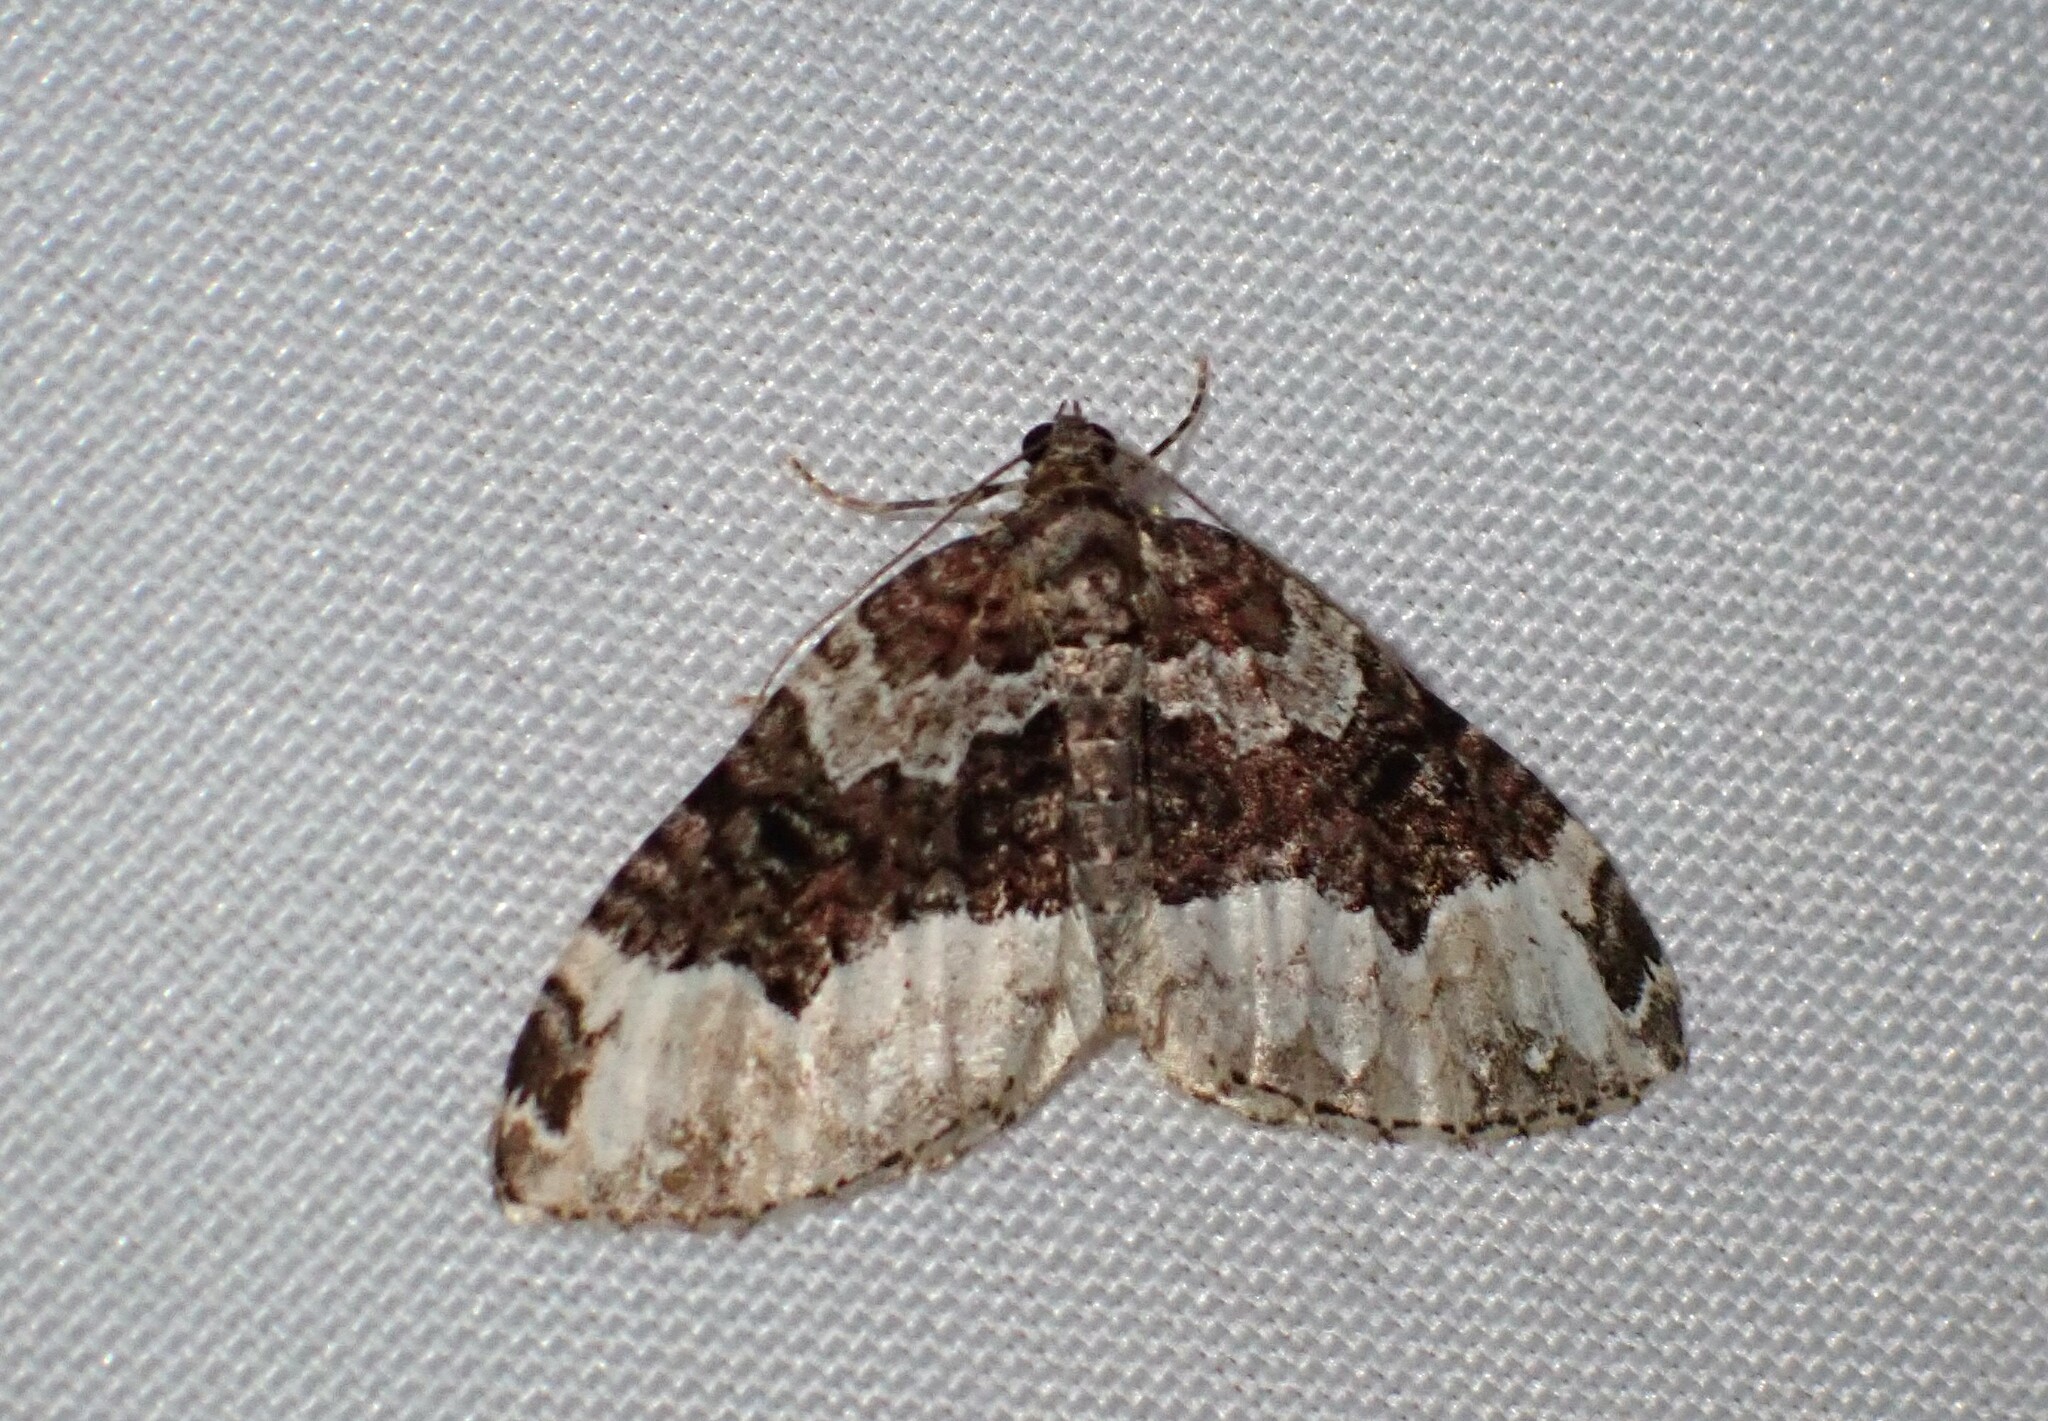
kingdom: Animalia
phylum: Arthropoda
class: Insecta
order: Lepidoptera
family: Geometridae
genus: Euphyia
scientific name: Euphyia intermediata
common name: Sharp-angled carpet
